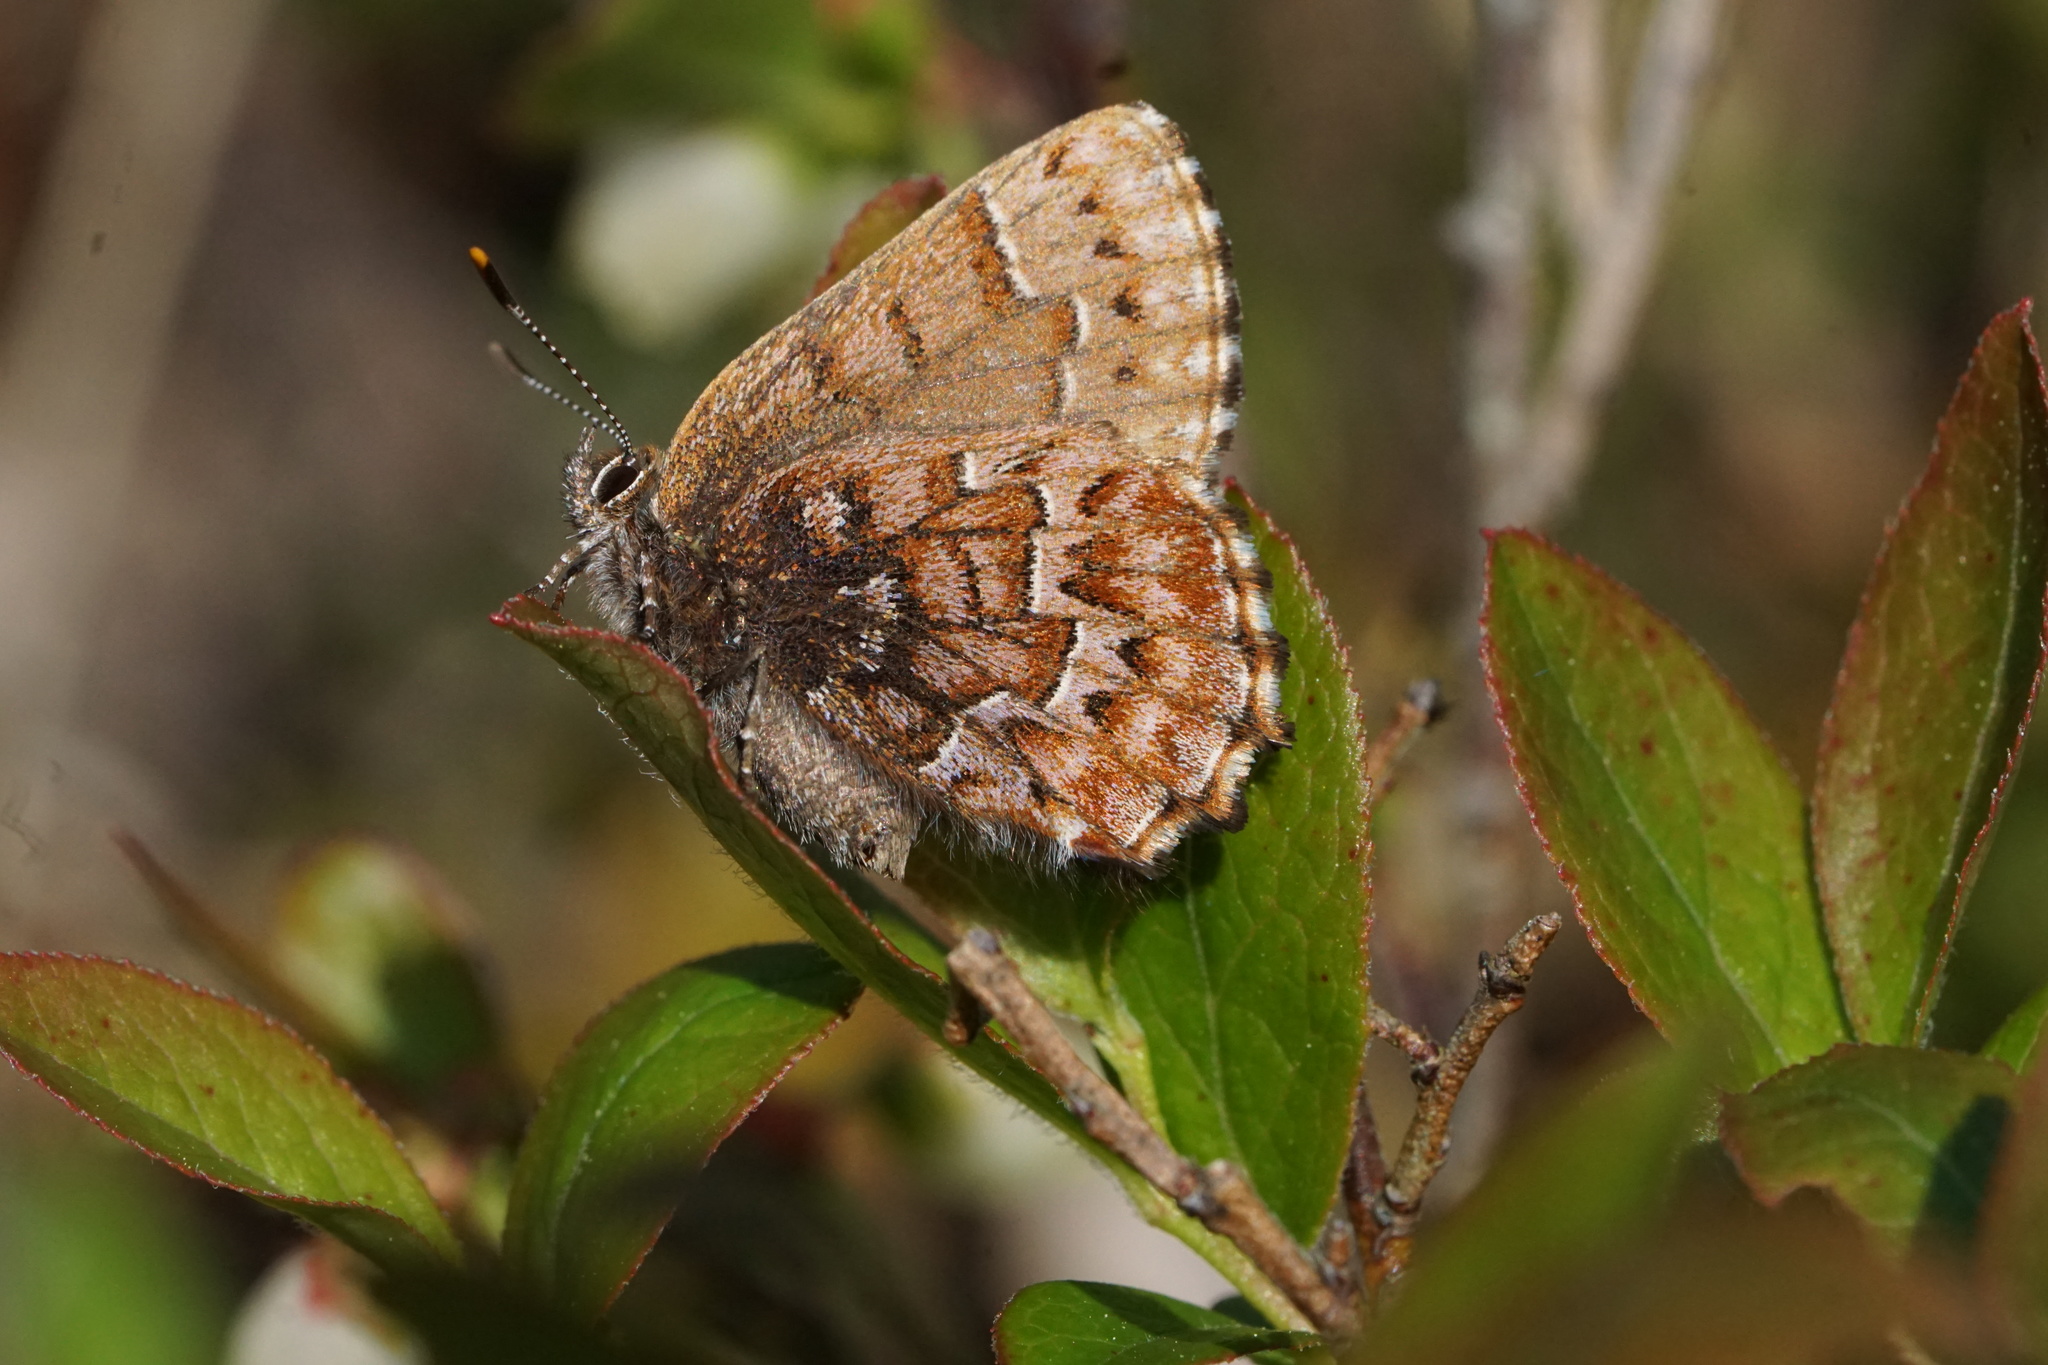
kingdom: Animalia
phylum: Arthropoda
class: Insecta
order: Lepidoptera
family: Lycaenidae
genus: Incisalia
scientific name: Incisalia niphon
